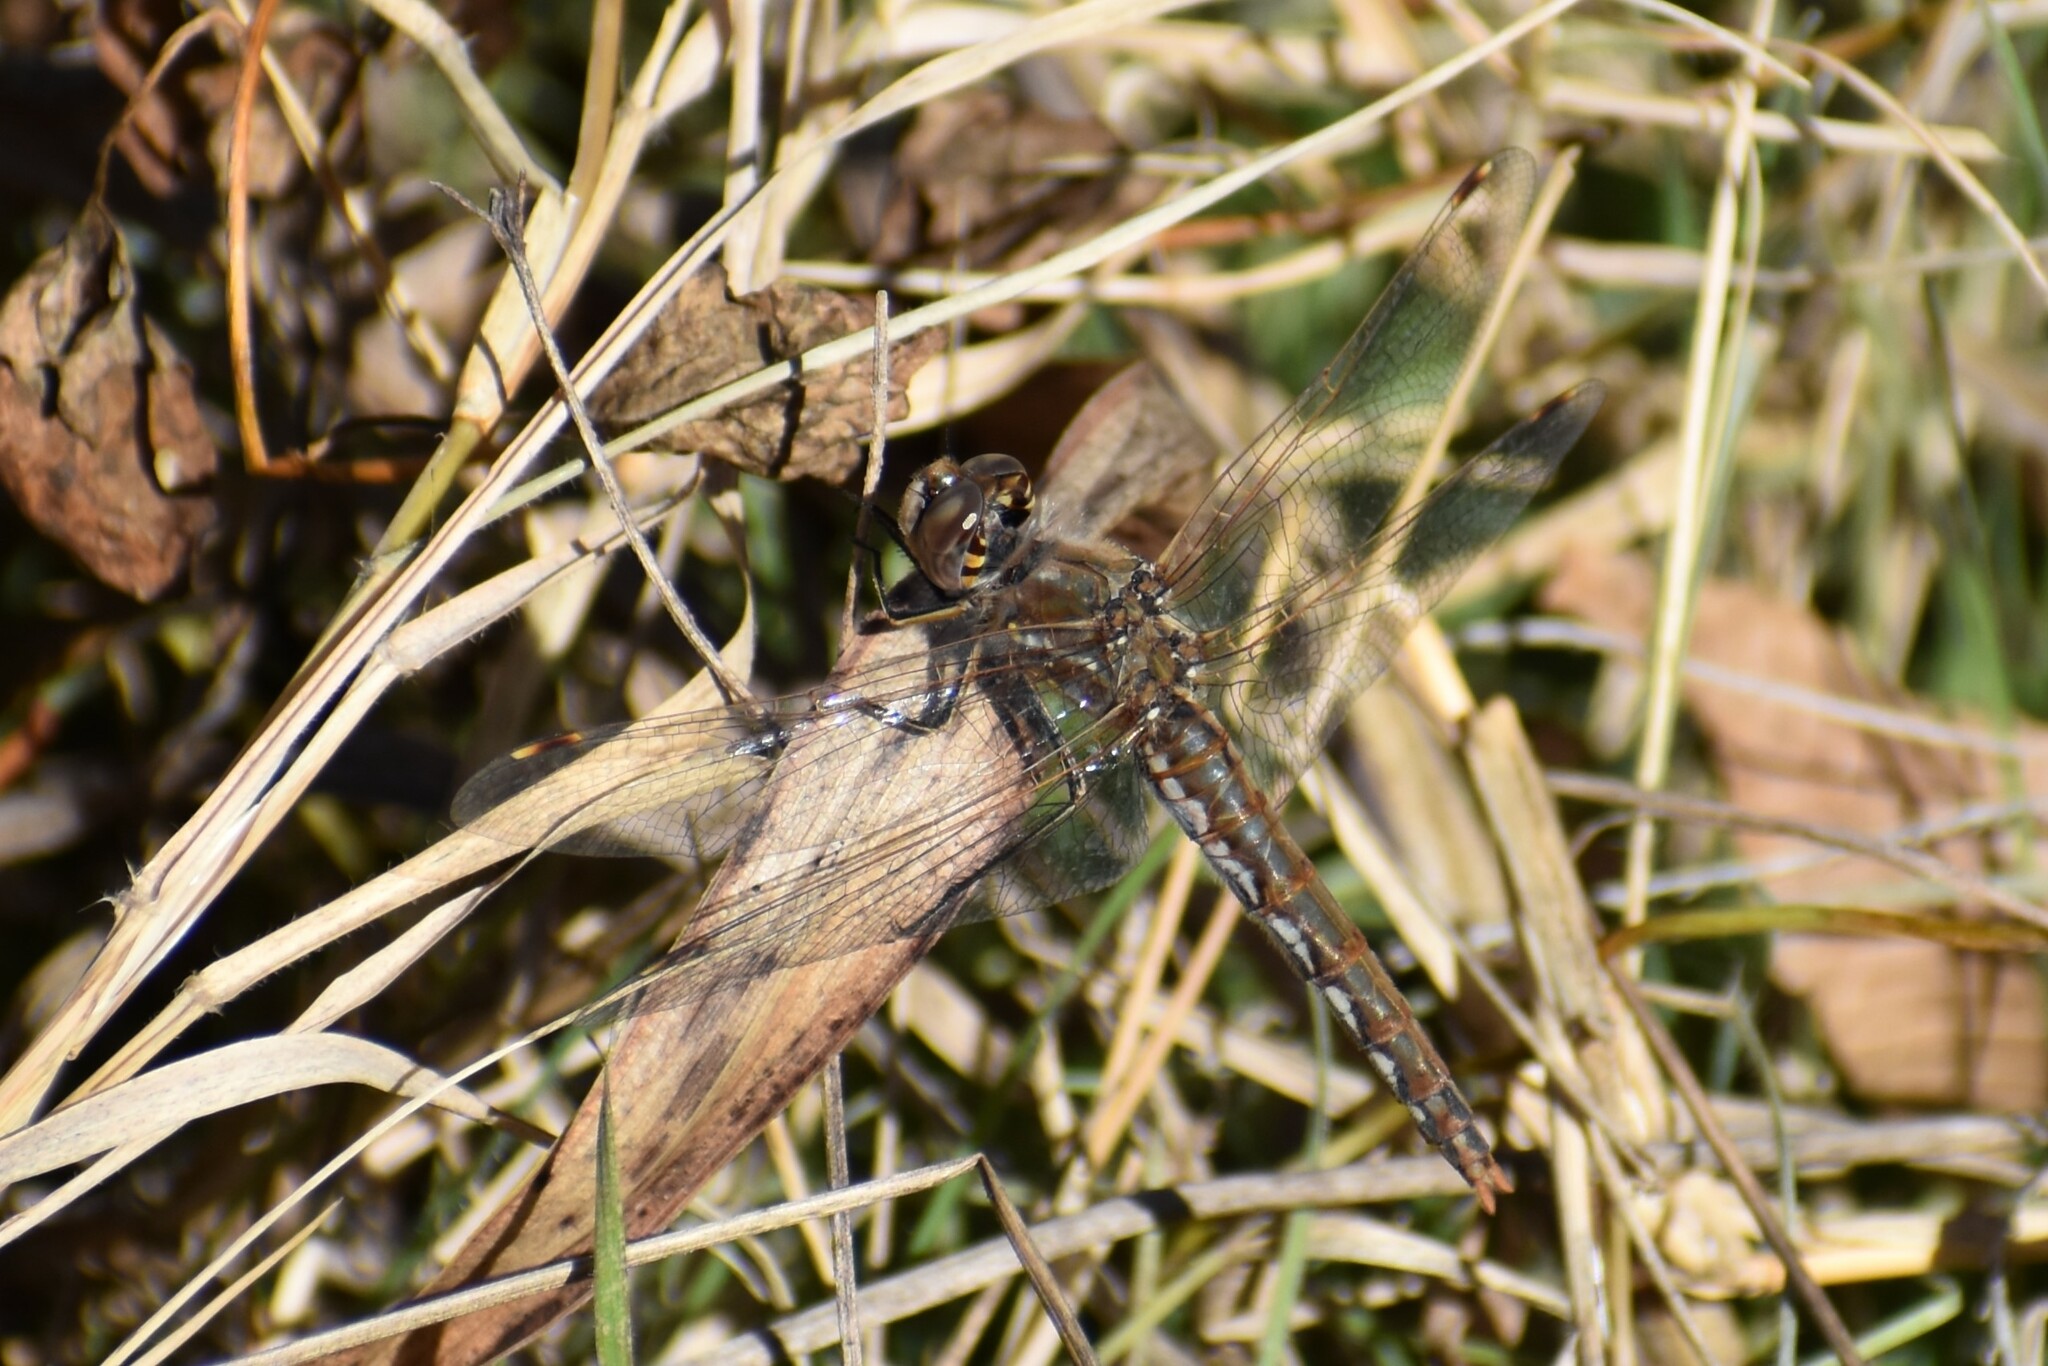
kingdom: Animalia
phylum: Arthropoda
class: Insecta
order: Odonata
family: Libellulidae
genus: Sympetrum
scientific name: Sympetrum corruptum
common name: Variegated meadowhawk
